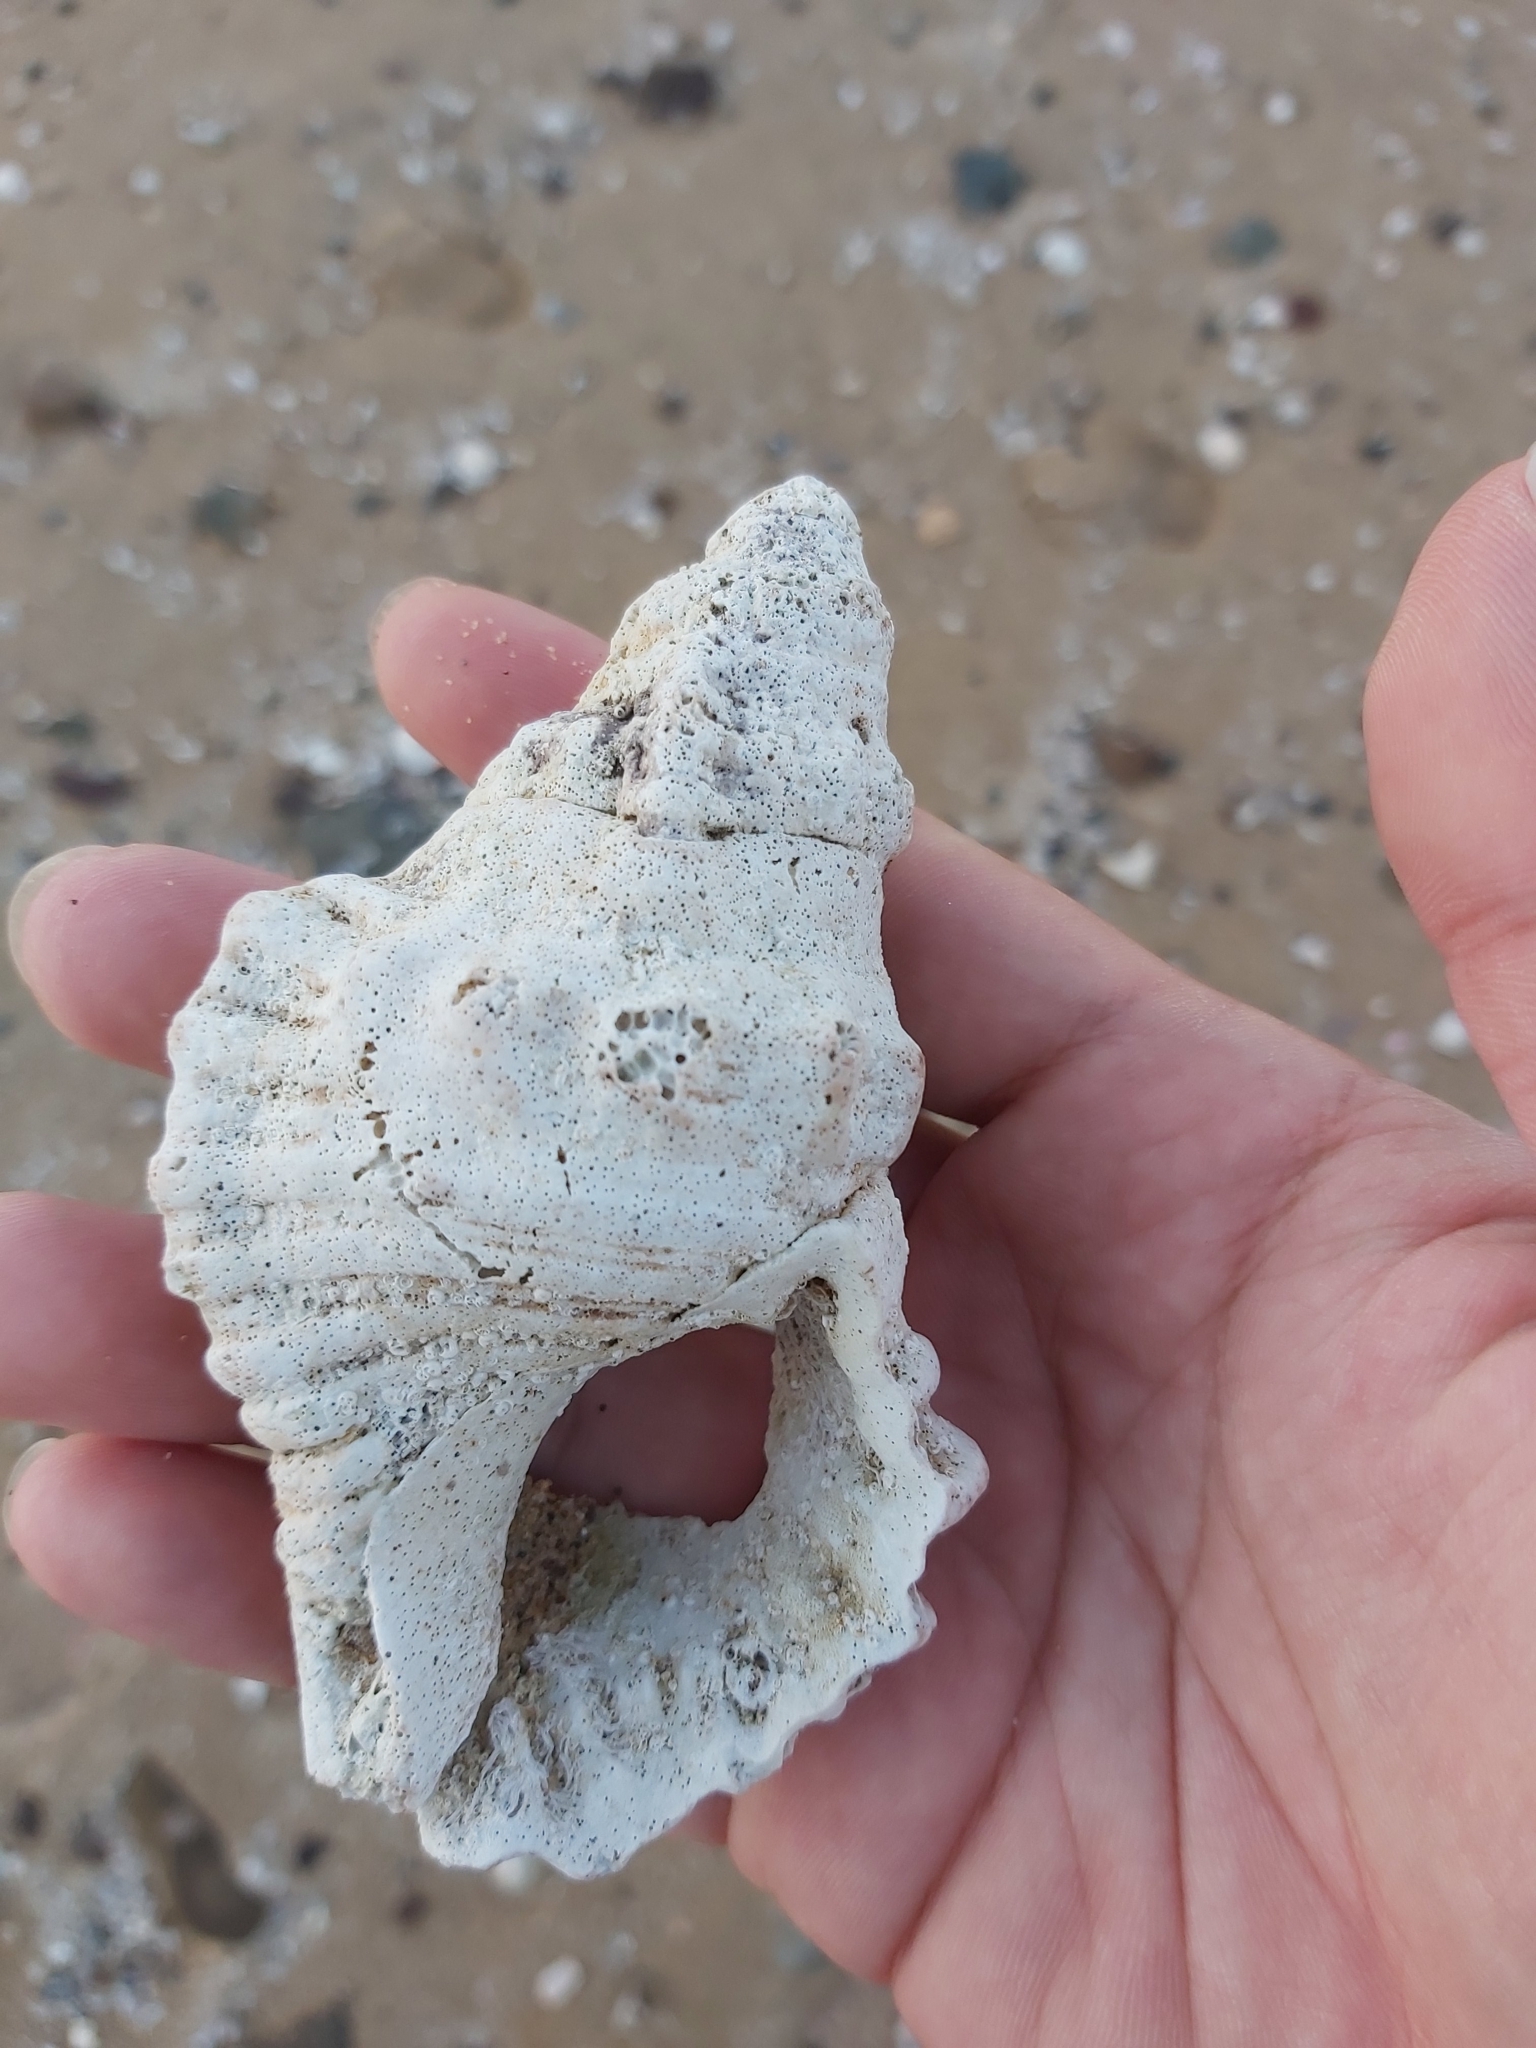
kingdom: Animalia
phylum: Mollusca
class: Gastropoda
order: Littorinimorpha
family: Cymatiidae
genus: Cabestana
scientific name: Cabestana spengleri
